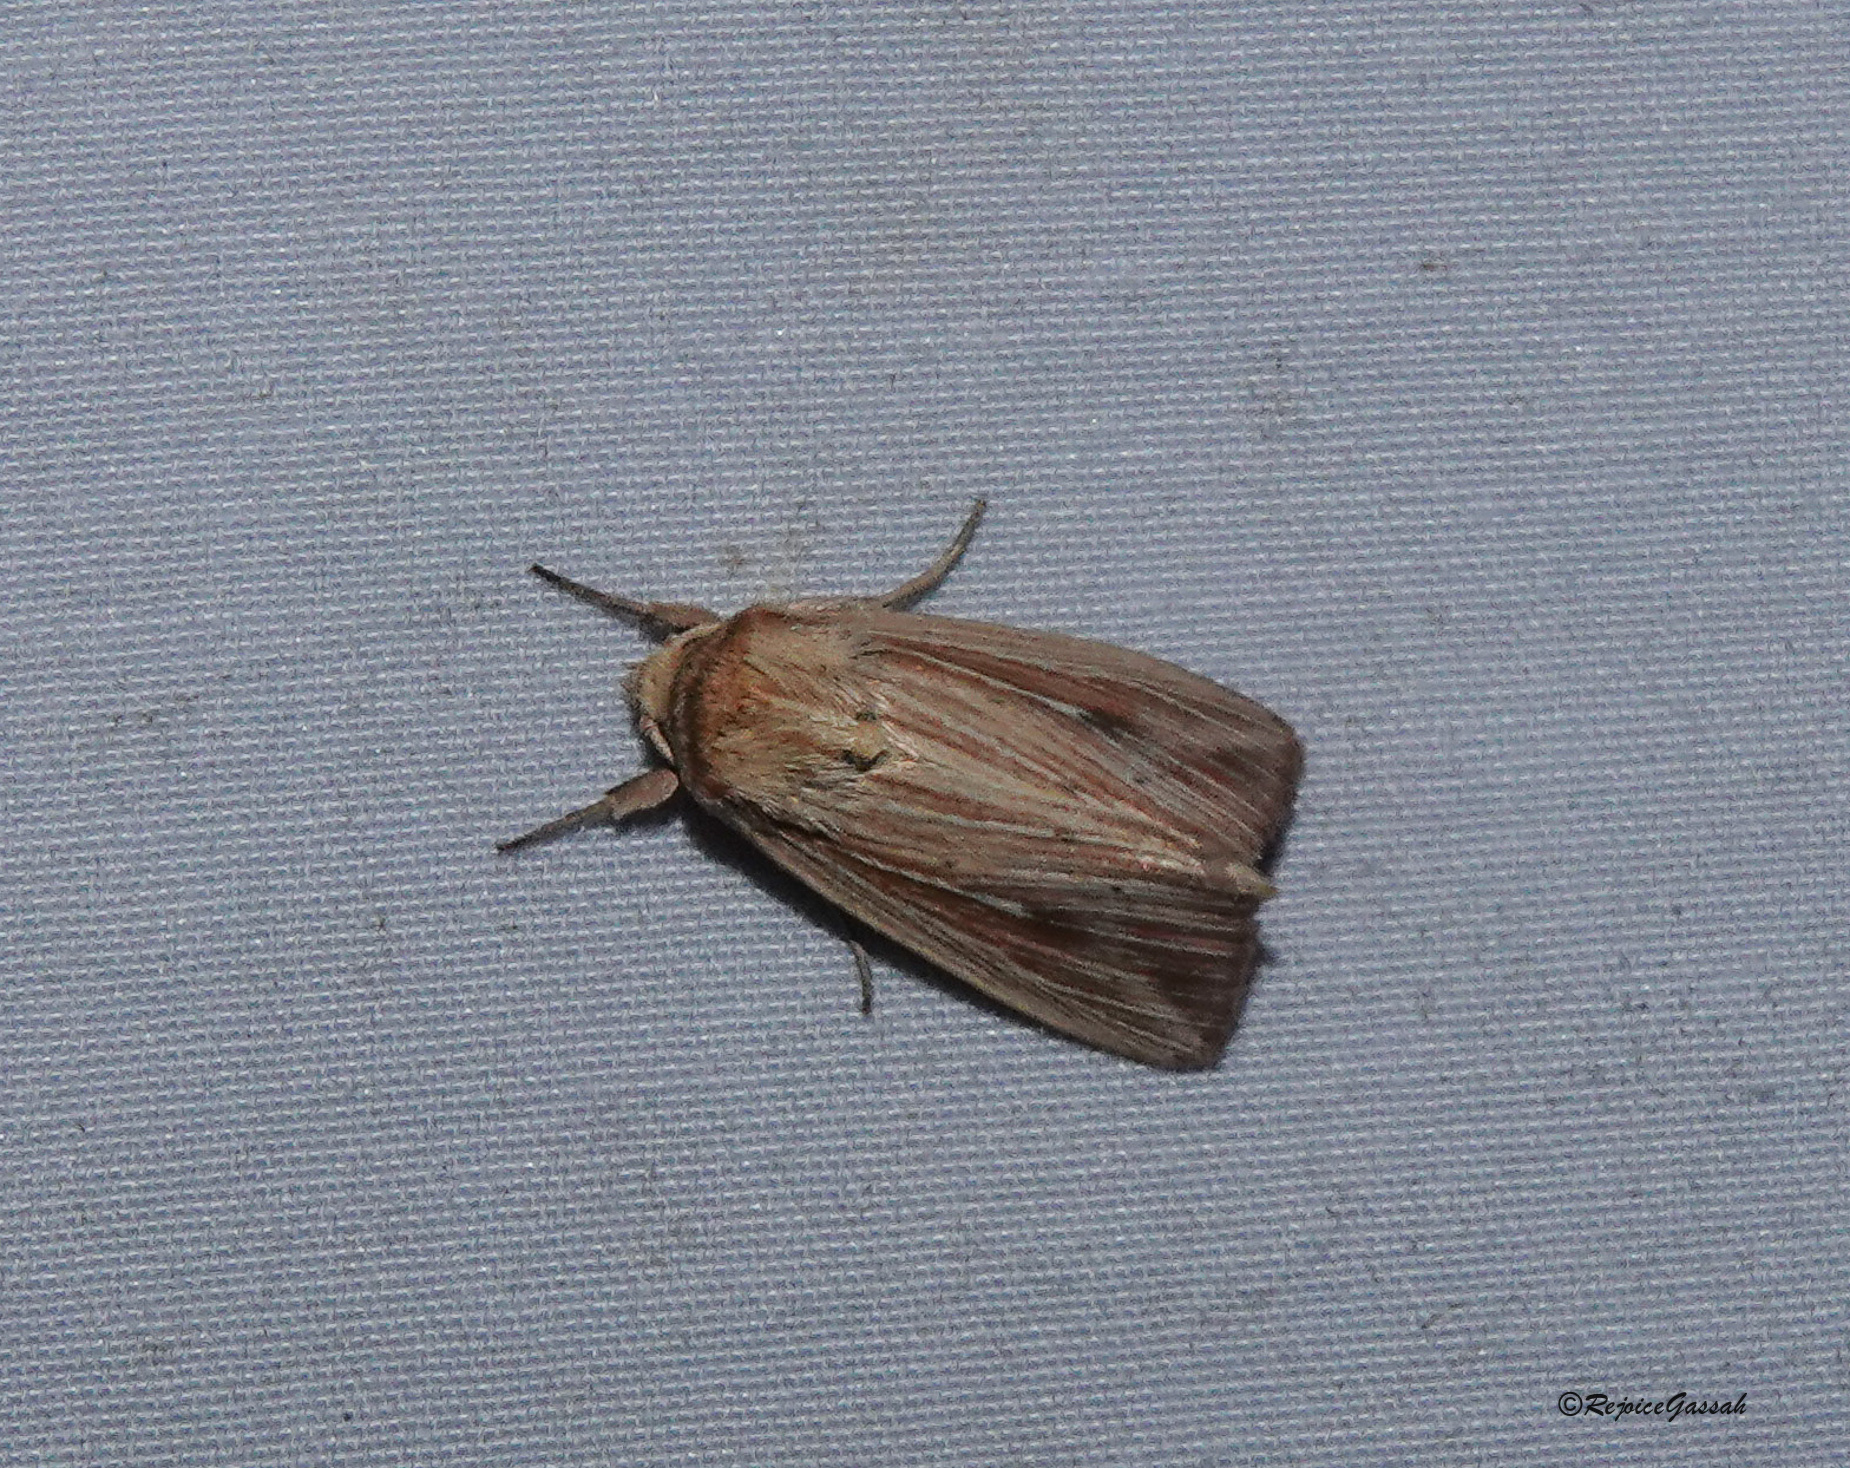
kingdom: Animalia
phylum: Arthropoda
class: Insecta
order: Lepidoptera
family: Noctuidae
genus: Mythimna
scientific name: Mythimna decisissima
